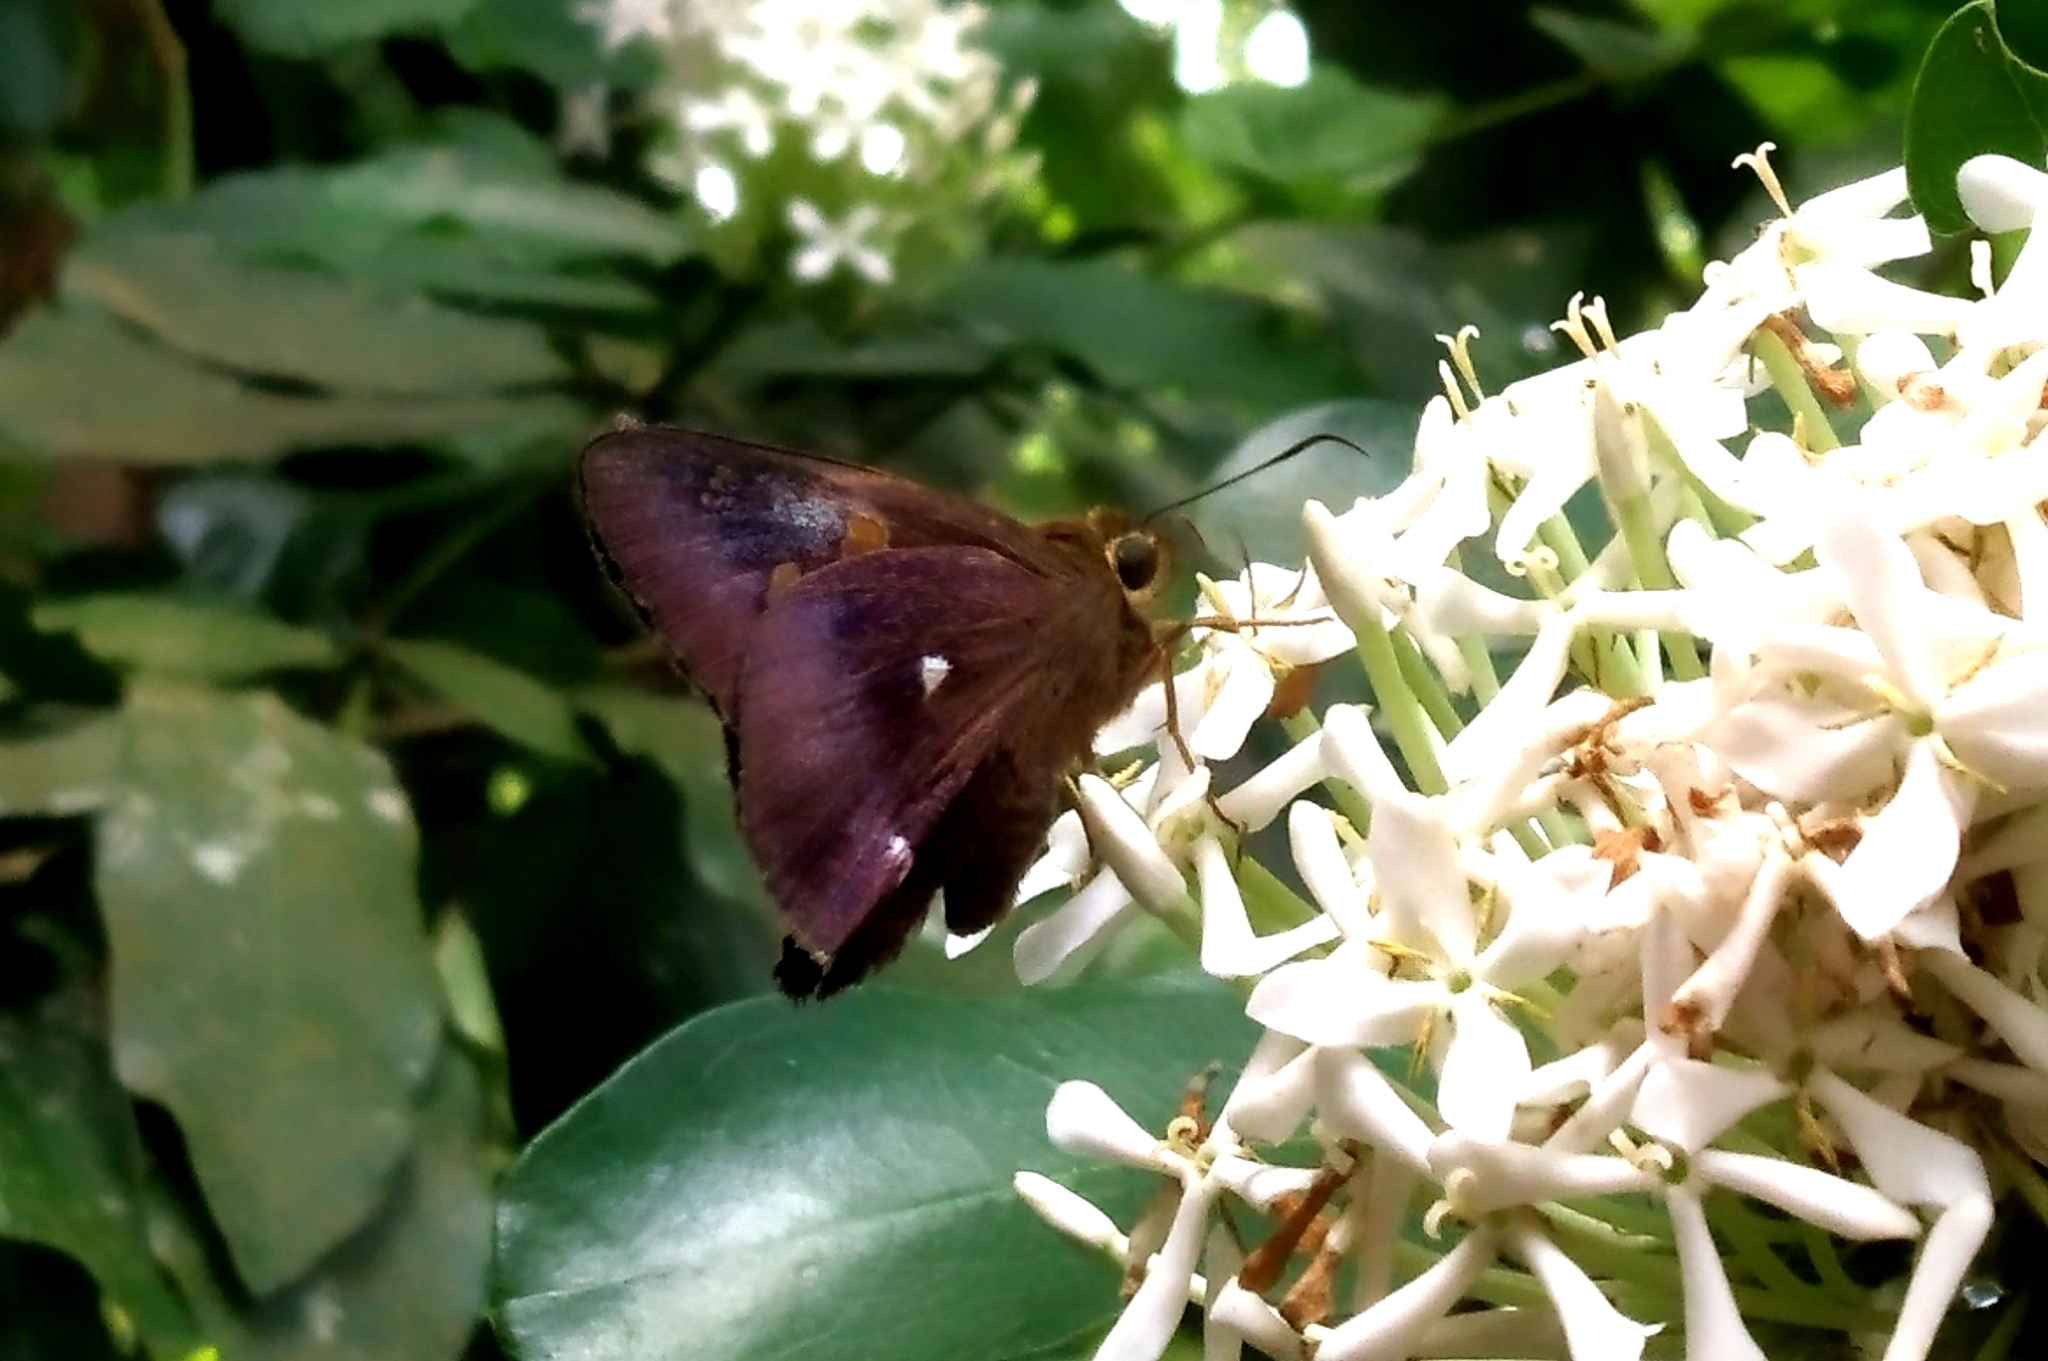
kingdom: Animalia
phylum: Arthropoda
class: Insecta
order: Lepidoptera
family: Hesperiidae
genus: Hasora
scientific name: Hasora badra
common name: Common awl
